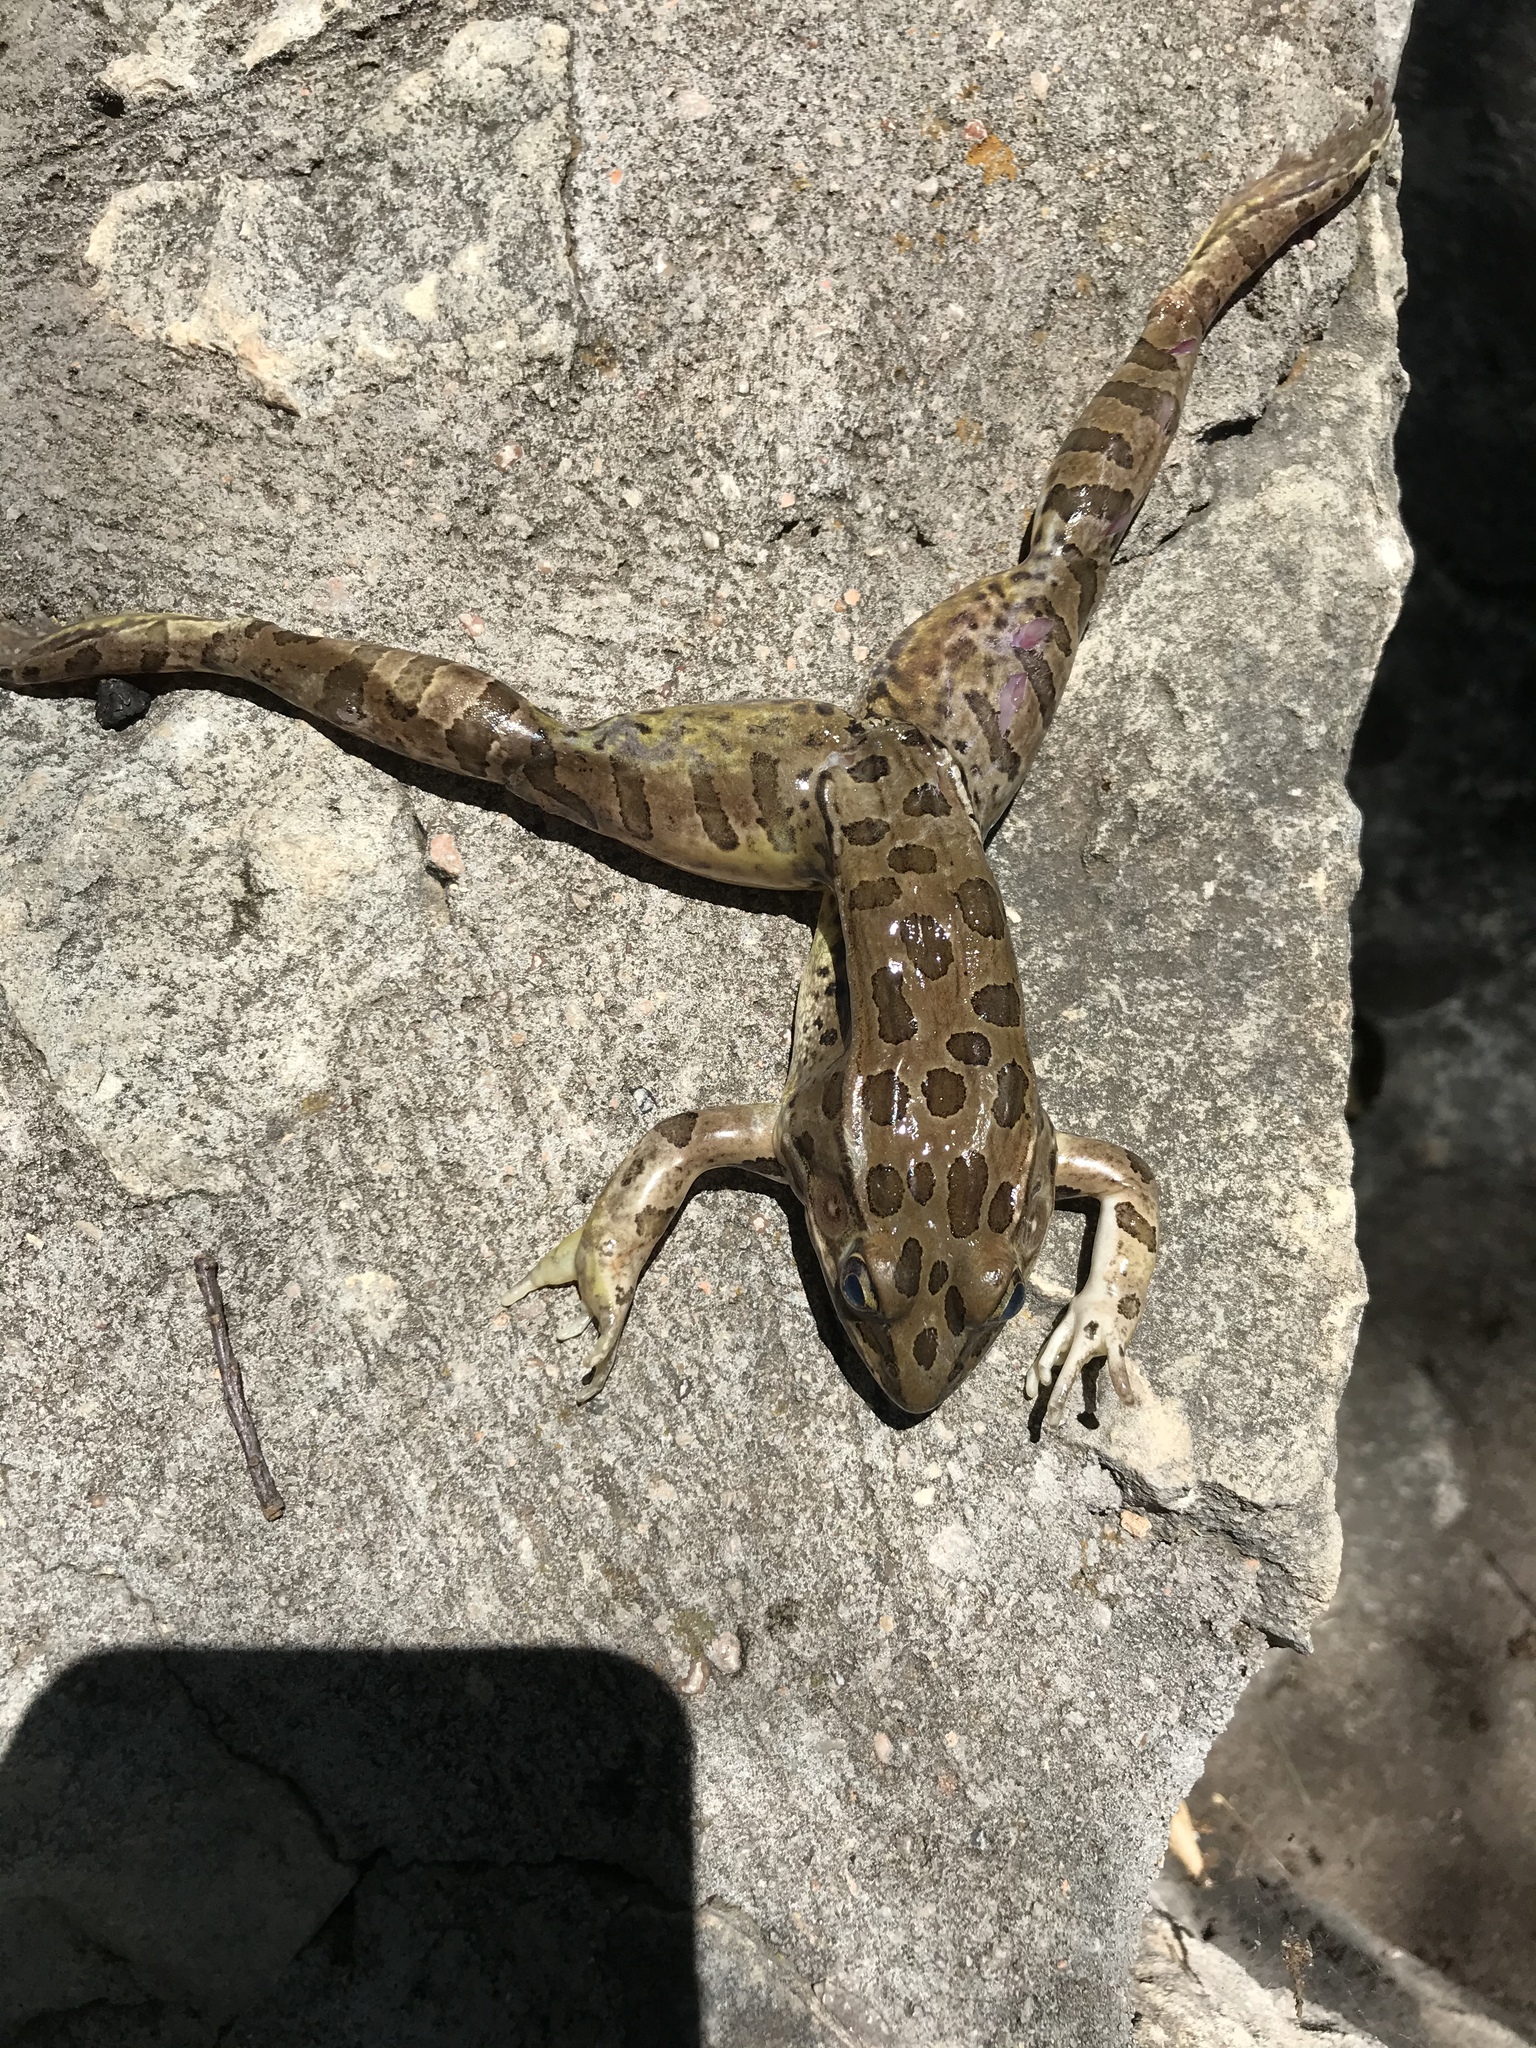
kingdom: Animalia
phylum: Chordata
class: Amphibia
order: Anura
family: Ranidae
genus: Lithobates
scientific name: Lithobates blairi
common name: Plains leopard frog
